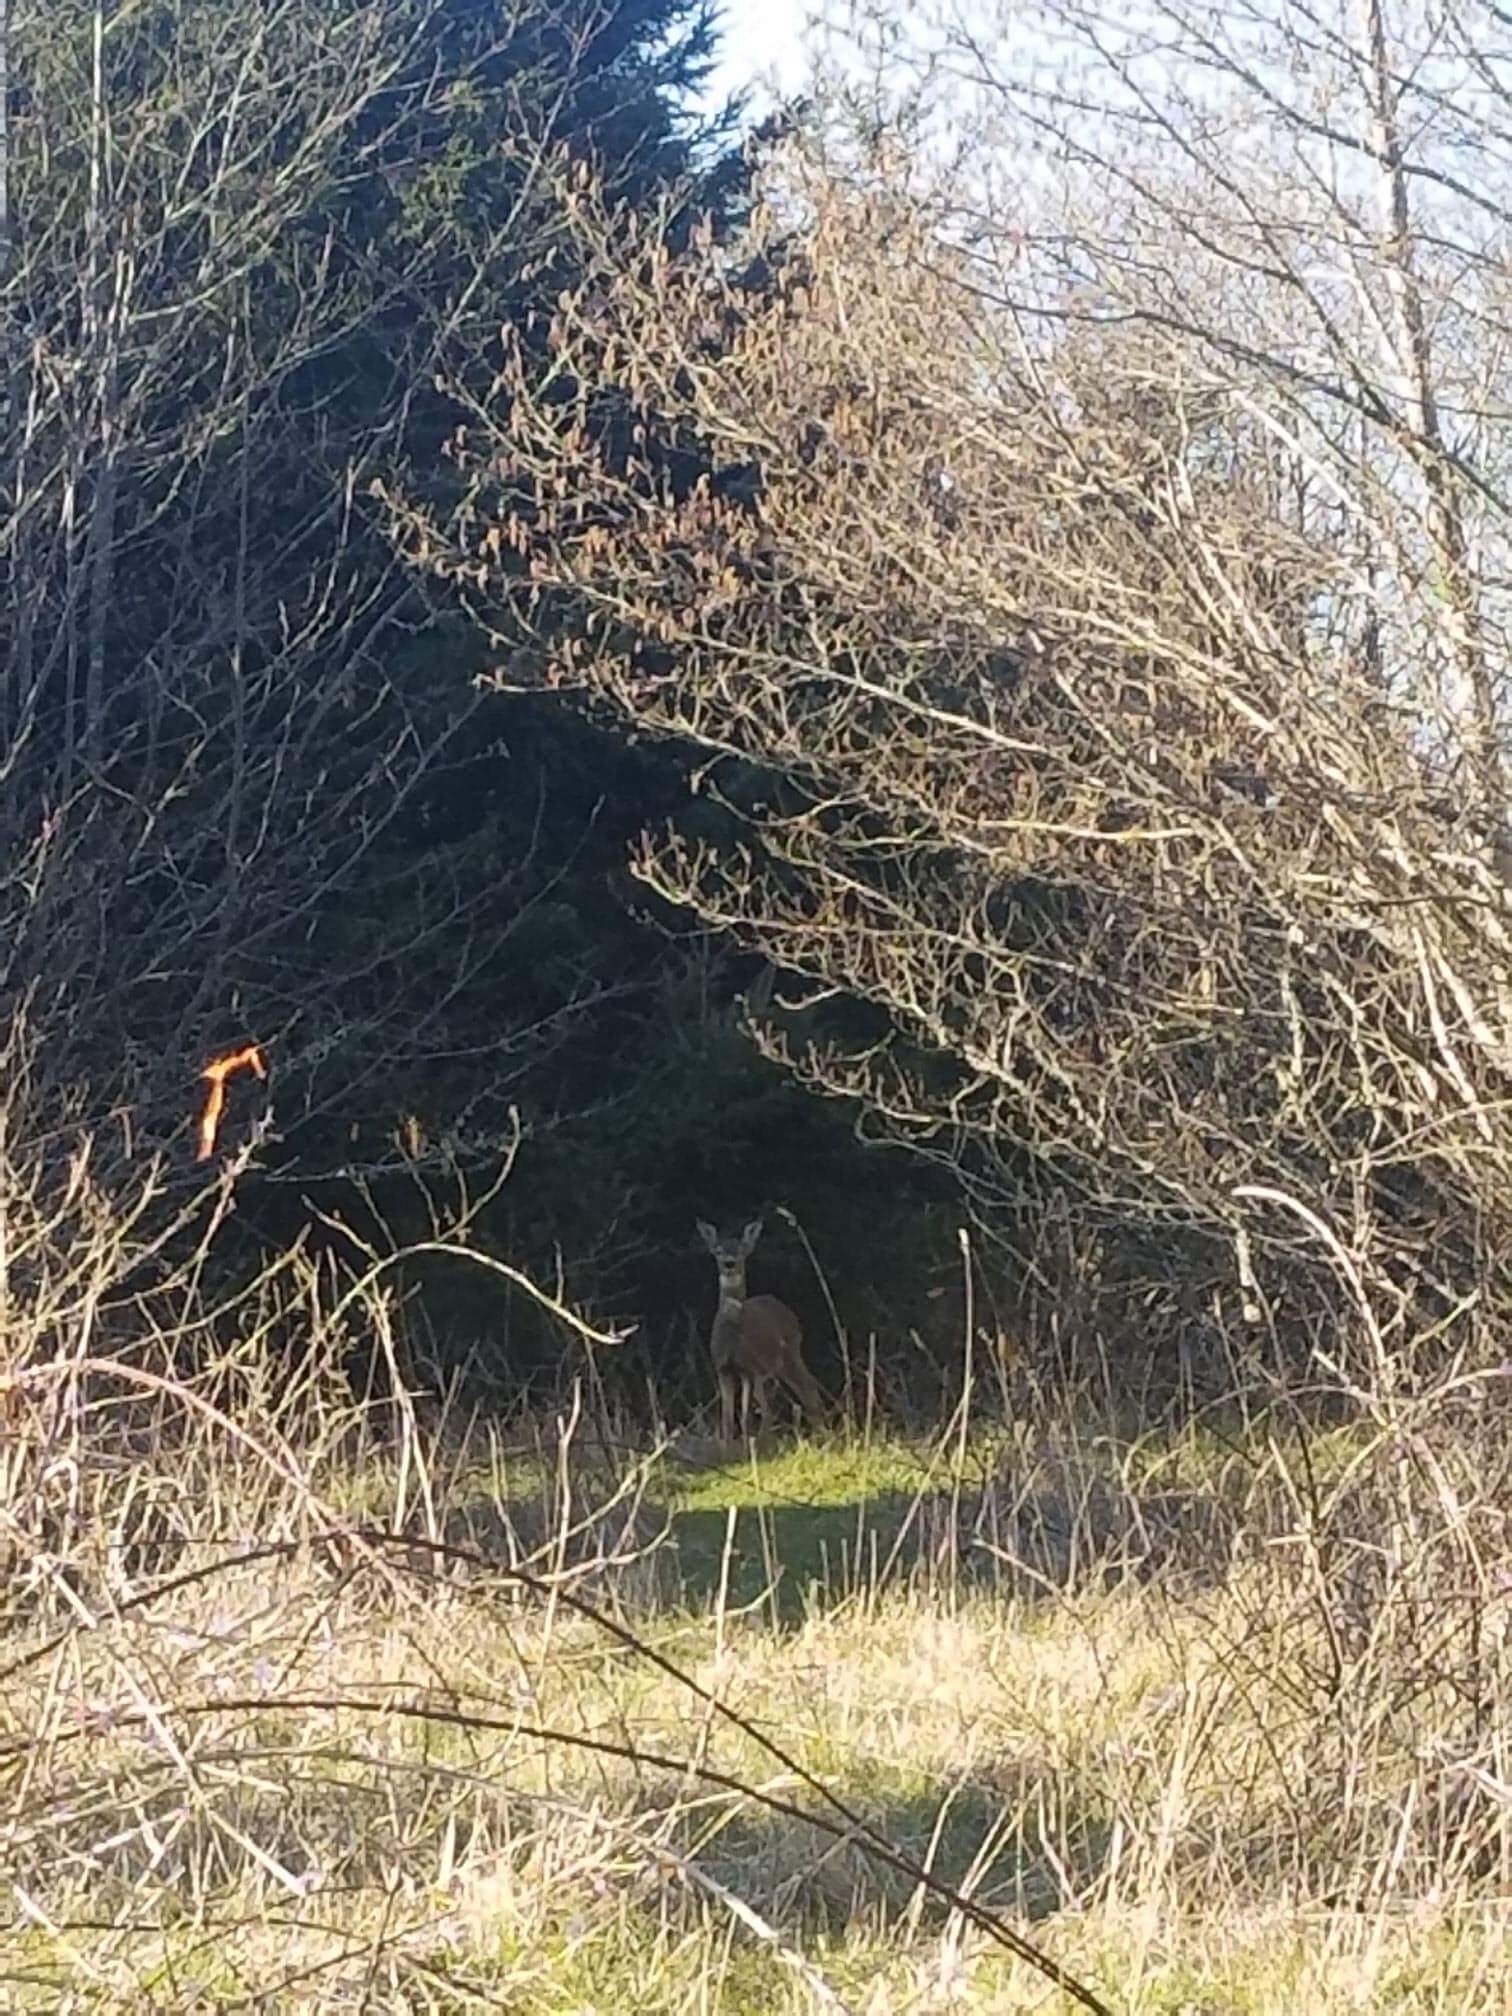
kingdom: Animalia
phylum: Chordata
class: Mammalia
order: Artiodactyla
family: Cervidae
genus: Odocoileus
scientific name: Odocoileus hemionus
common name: Mule deer
